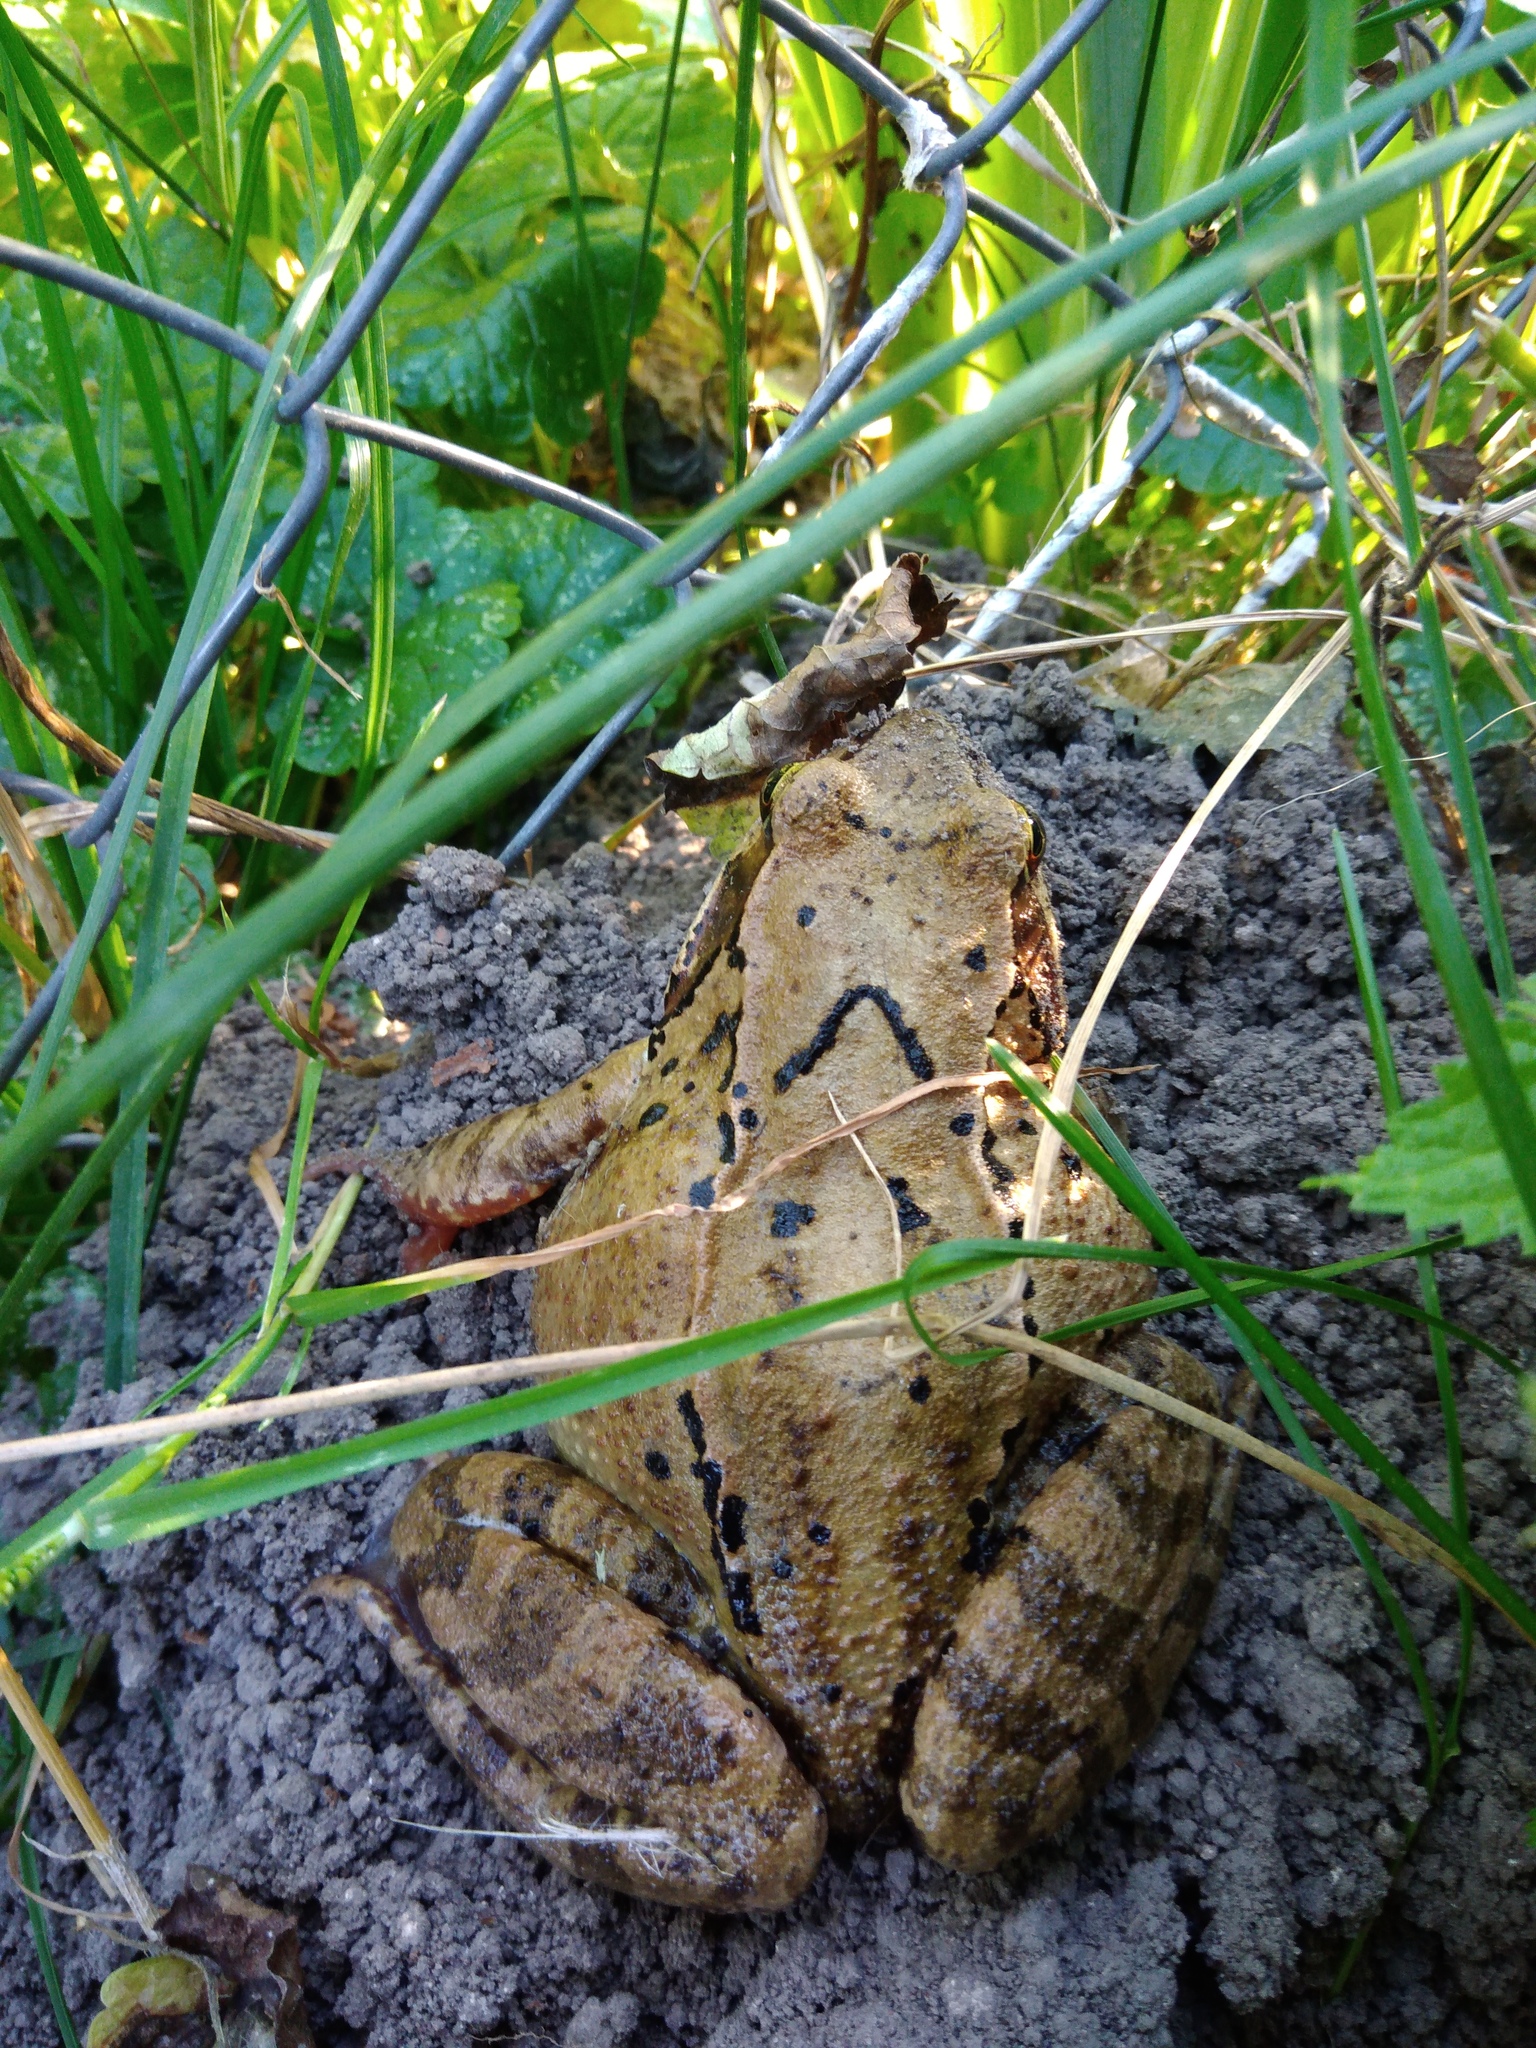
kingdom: Animalia
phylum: Chordata
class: Amphibia
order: Anura
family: Ranidae
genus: Rana
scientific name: Rana temporaria
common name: Common frog
